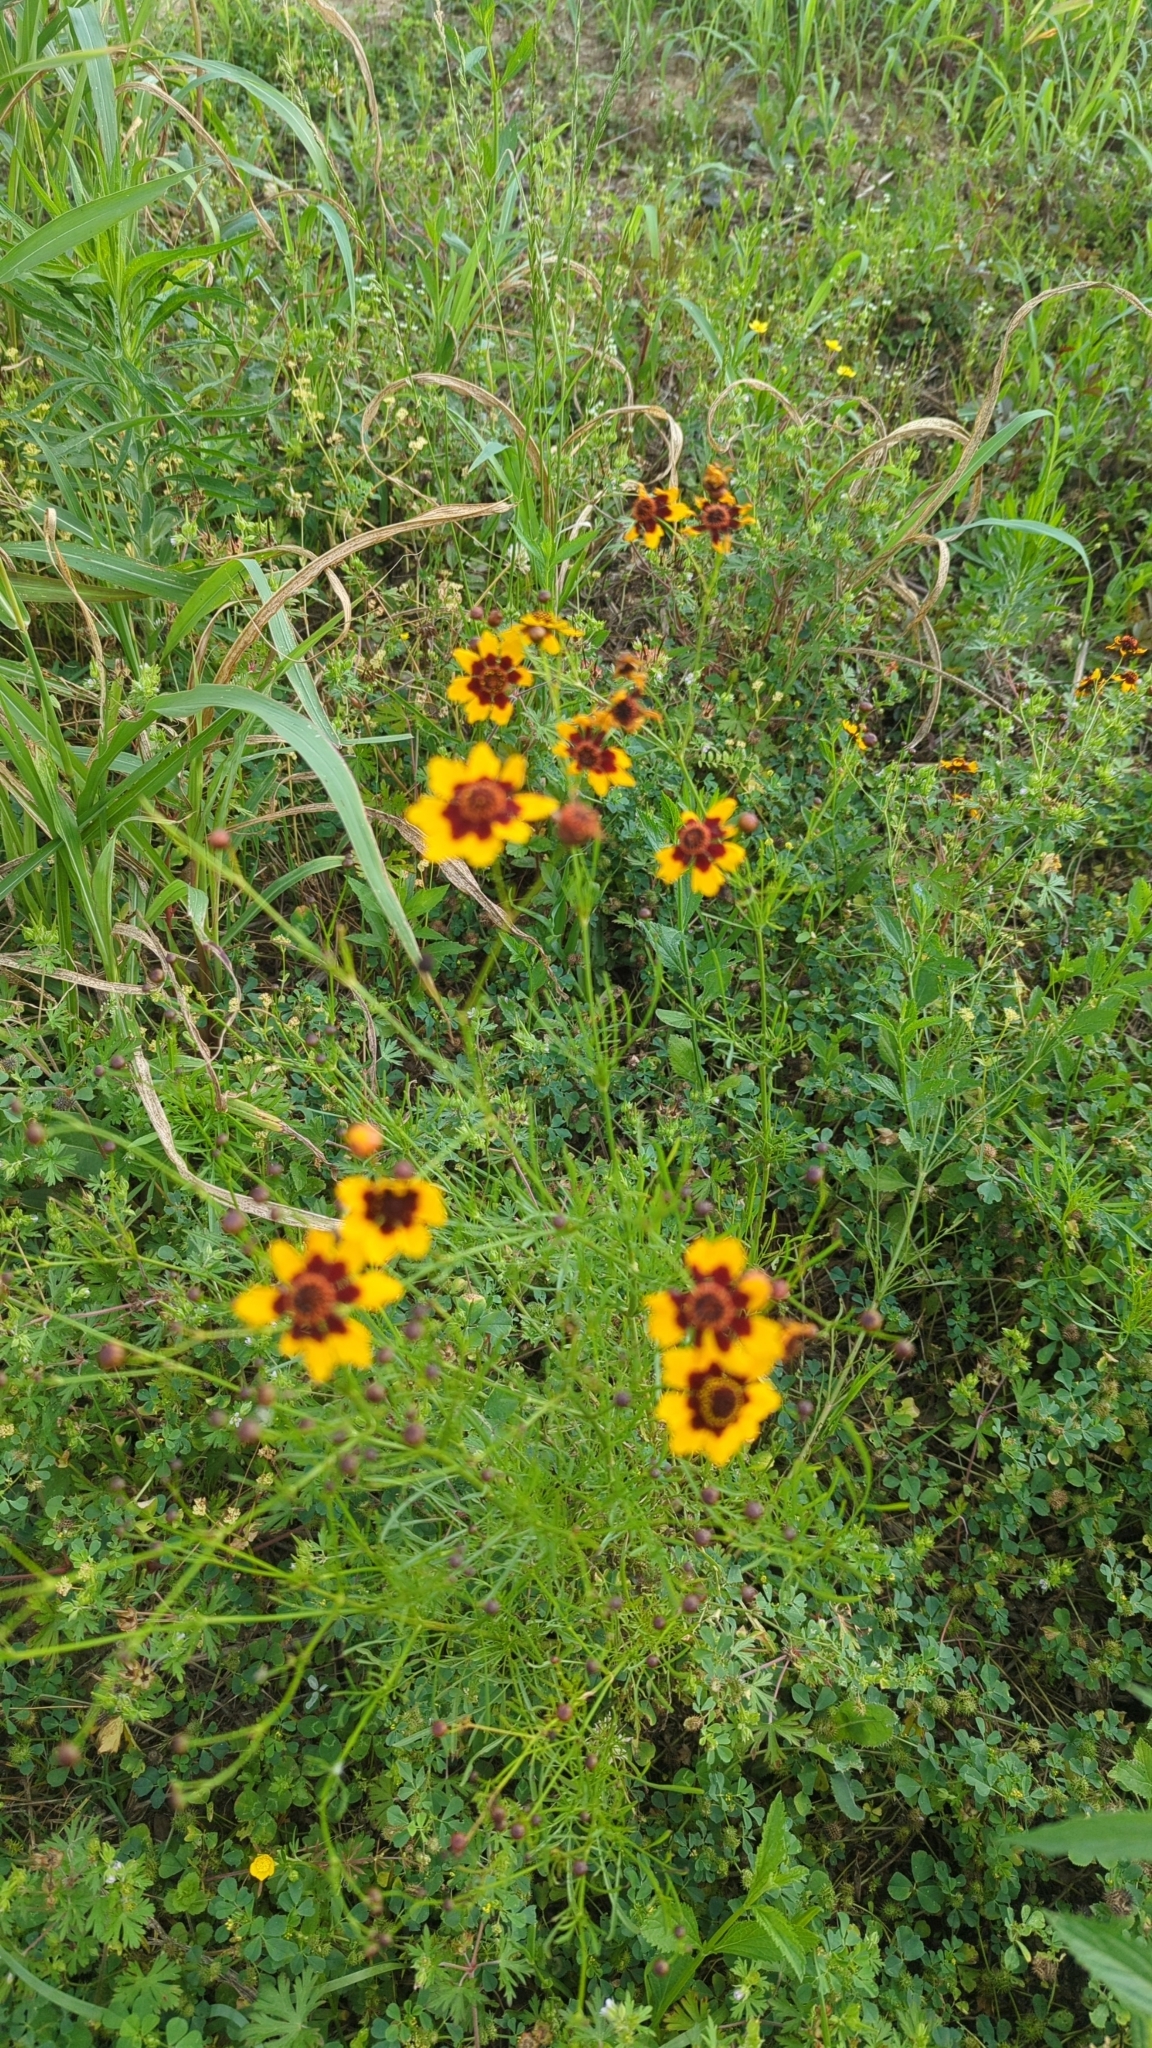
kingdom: Plantae
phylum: Tracheophyta
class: Magnoliopsida
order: Asterales
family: Asteraceae
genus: Coreopsis
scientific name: Coreopsis tinctoria
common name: Garden tickseed
